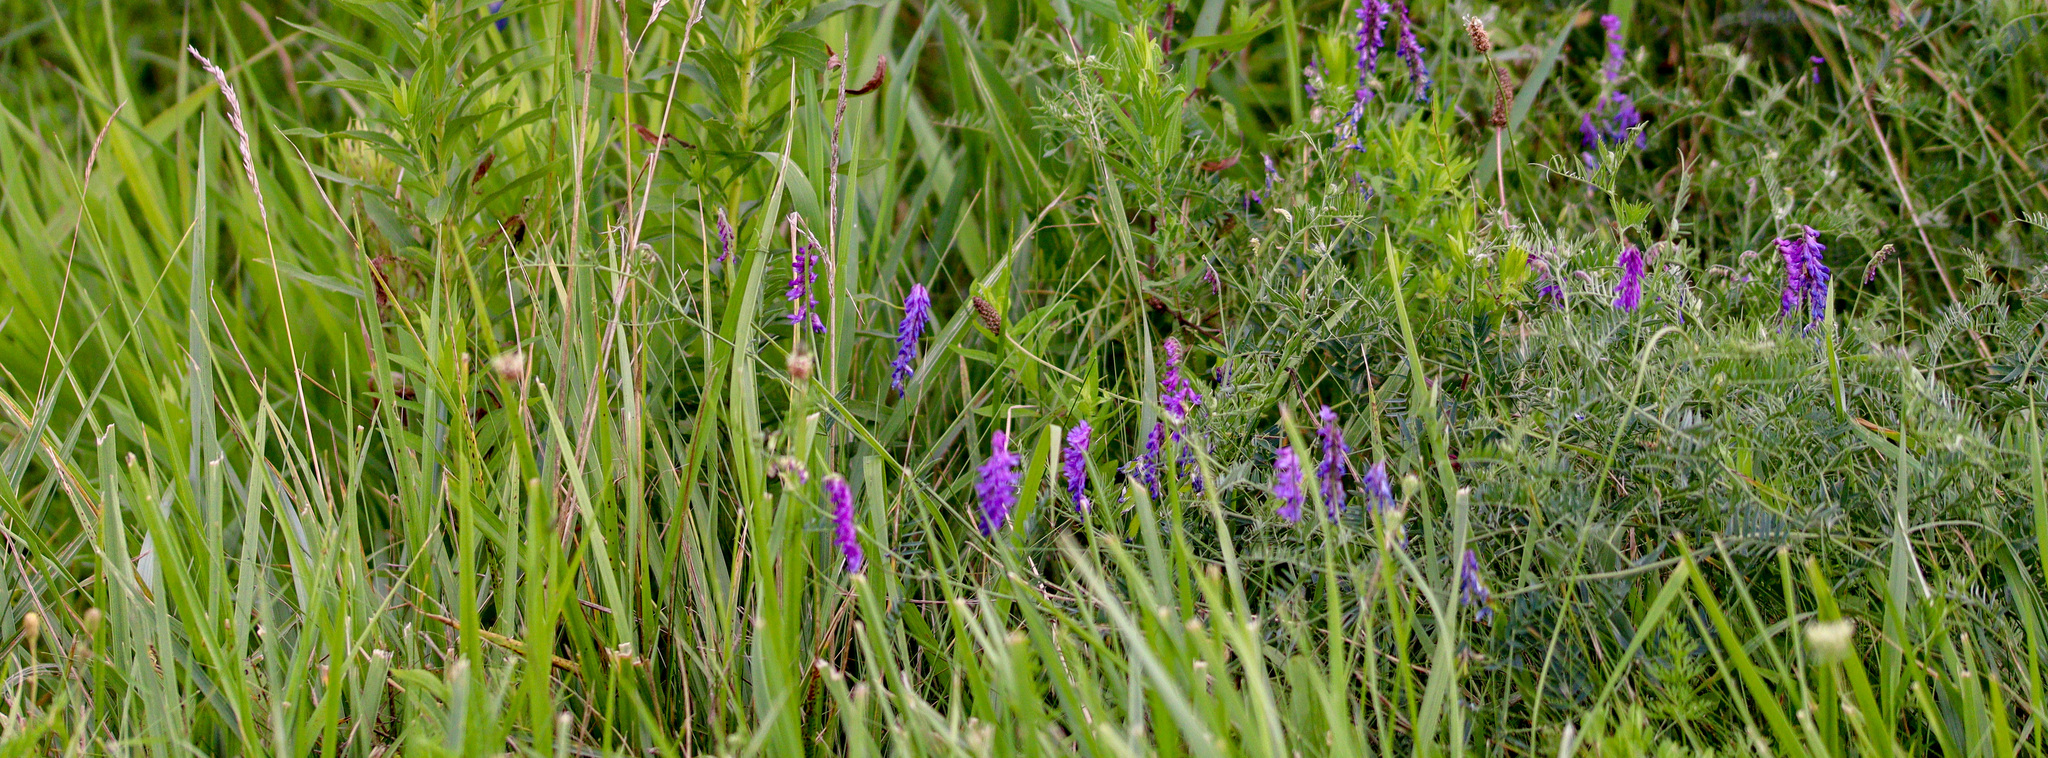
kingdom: Plantae
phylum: Tracheophyta
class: Magnoliopsida
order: Fabales
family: Fabaceae
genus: Vicia
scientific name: Vicia cracca
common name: Bird vetch
